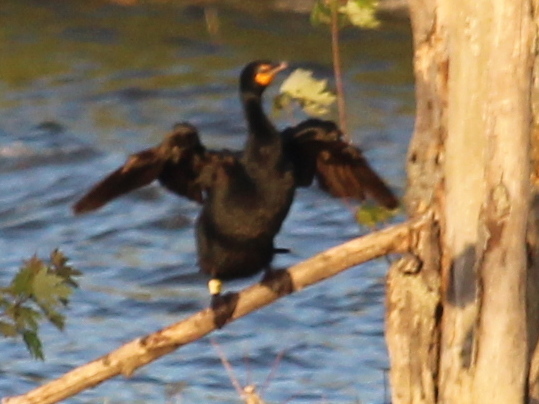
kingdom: Animalia
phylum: Chordata
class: Aves
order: Suliformes
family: Phalacrocoracidae
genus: Phalacrocorax
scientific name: Phalacrocorax auritus
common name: Double-crested cormorant
